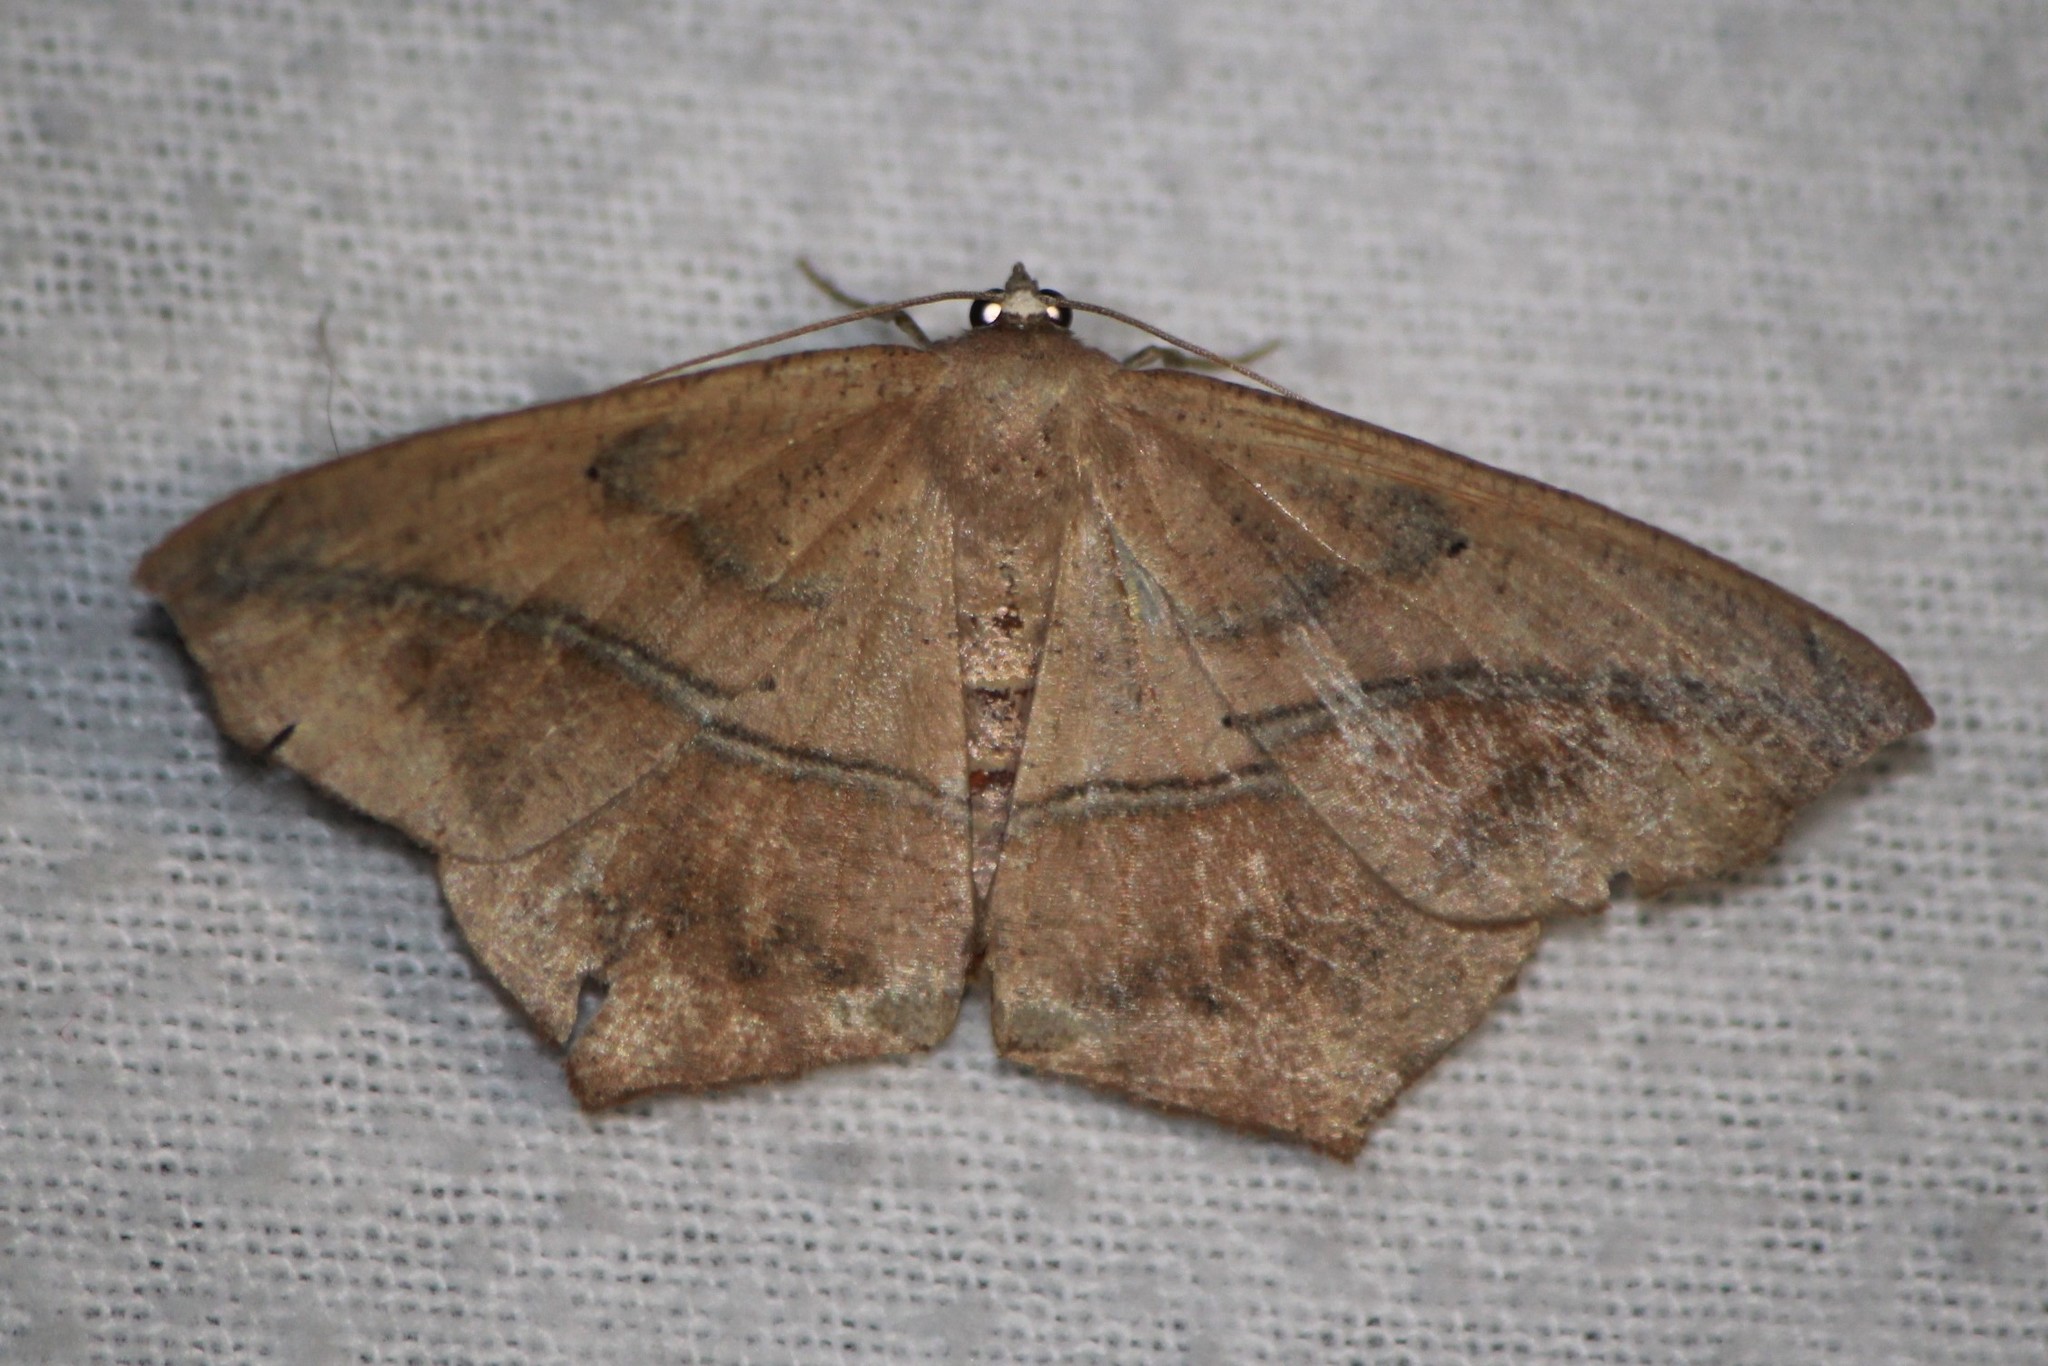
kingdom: Animalia
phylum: Arthropoda
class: Insecta
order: Lepidoptera
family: Geometridae
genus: Prochoerodes
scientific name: Prochoerodes lineola
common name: Large maple spanworm
